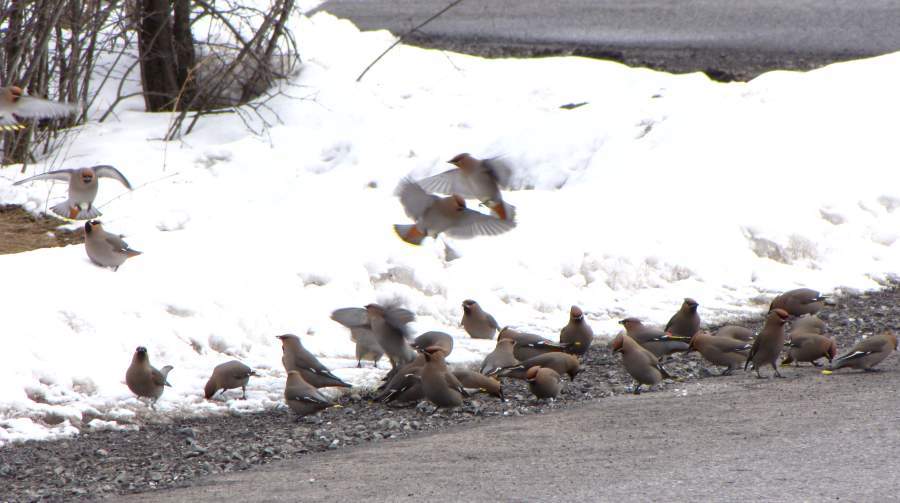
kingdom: Animalia
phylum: Chordata
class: Aves
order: Passeriformes
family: Bombycillidae
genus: Bombycilla
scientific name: Bombycilla garrulus
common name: Bohemian waxwing
